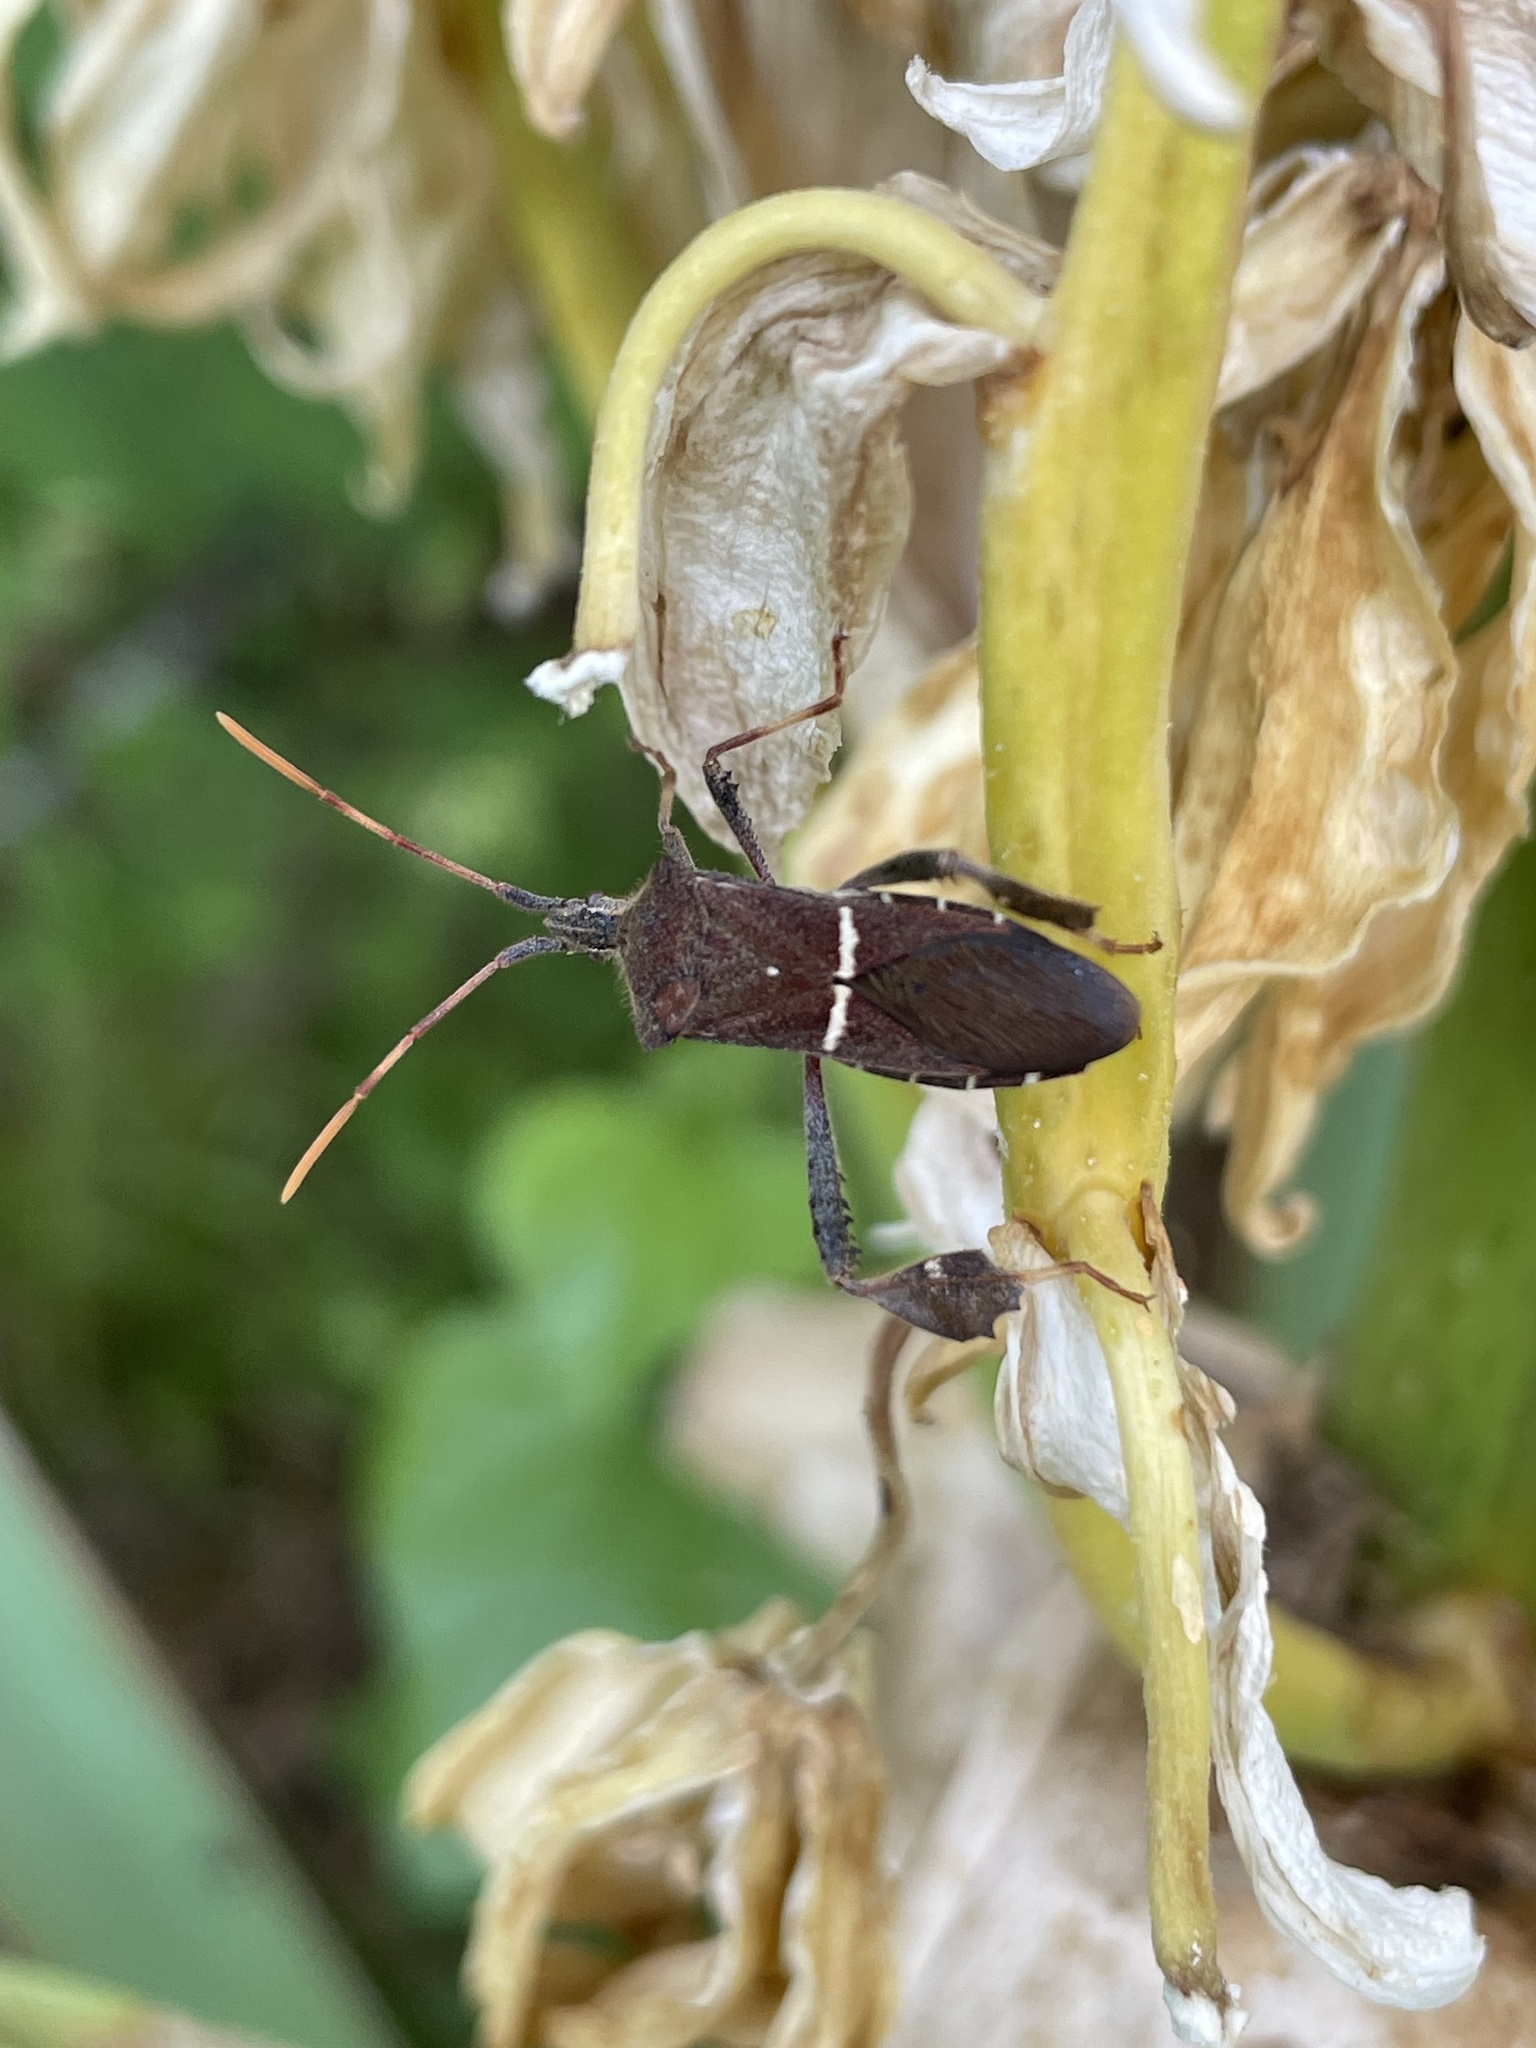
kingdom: Animalia
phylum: Arthropoda
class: Insecta
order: Hemiptera
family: Coreidae
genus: Leptoglossus
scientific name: Leptoglossus phyllopus
